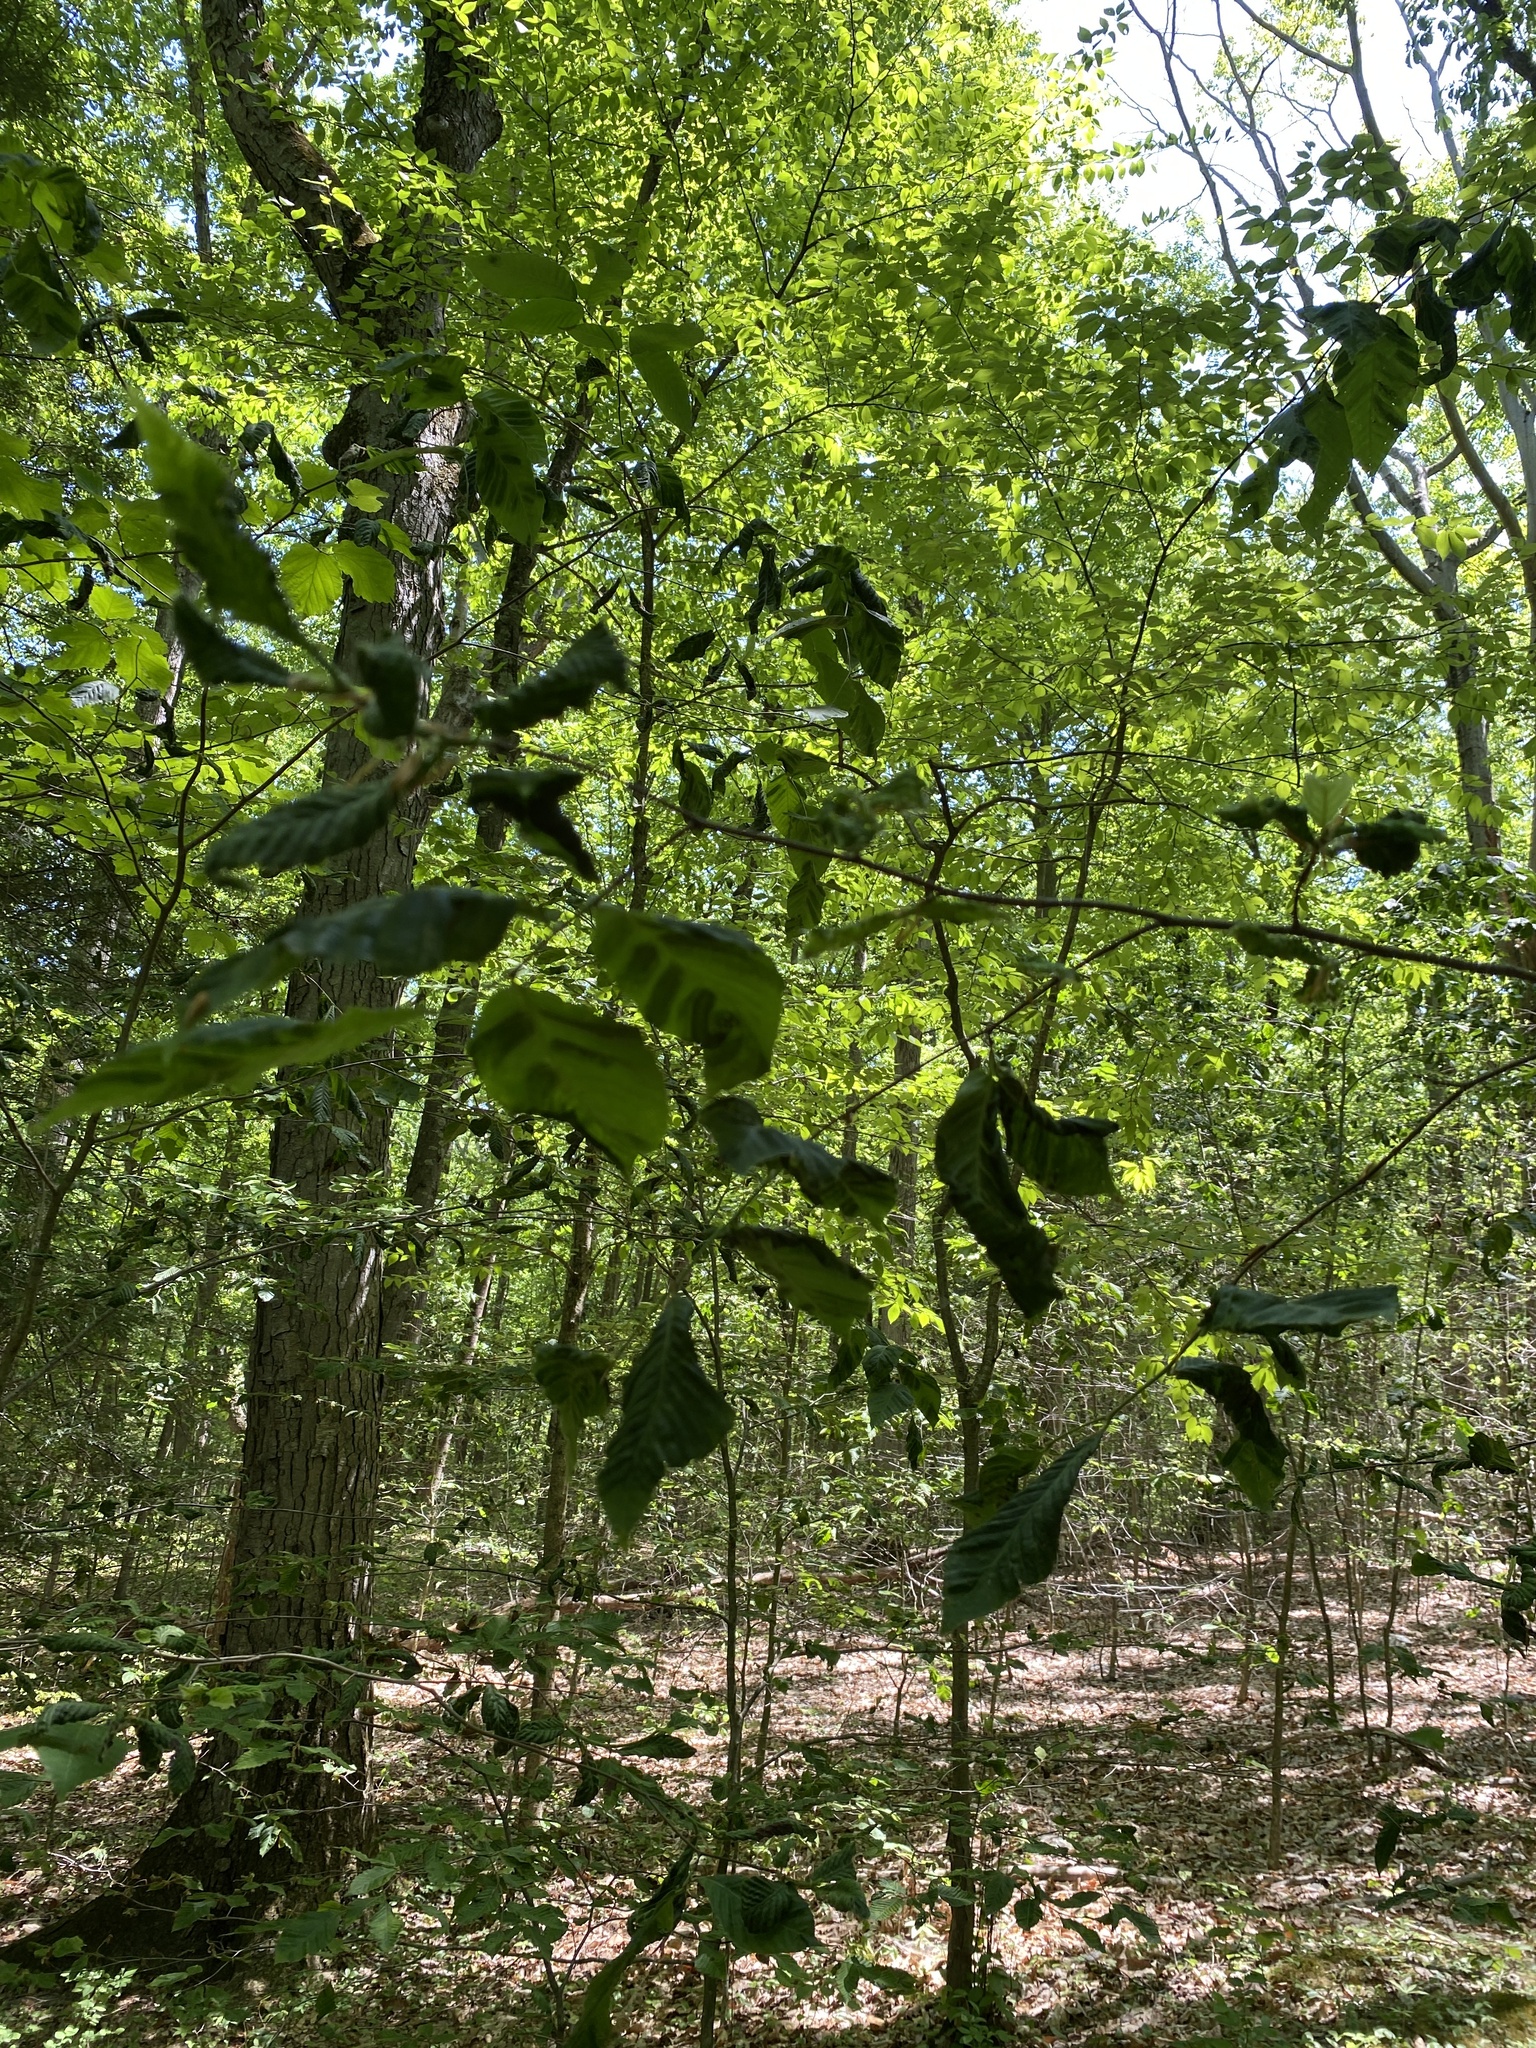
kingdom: Animalia
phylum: Nematoda
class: Chromadorea
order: Rhabditida
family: Anguinidae
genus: Litylenchus
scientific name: Litylenchus crenatae
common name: Beech leaf disease
